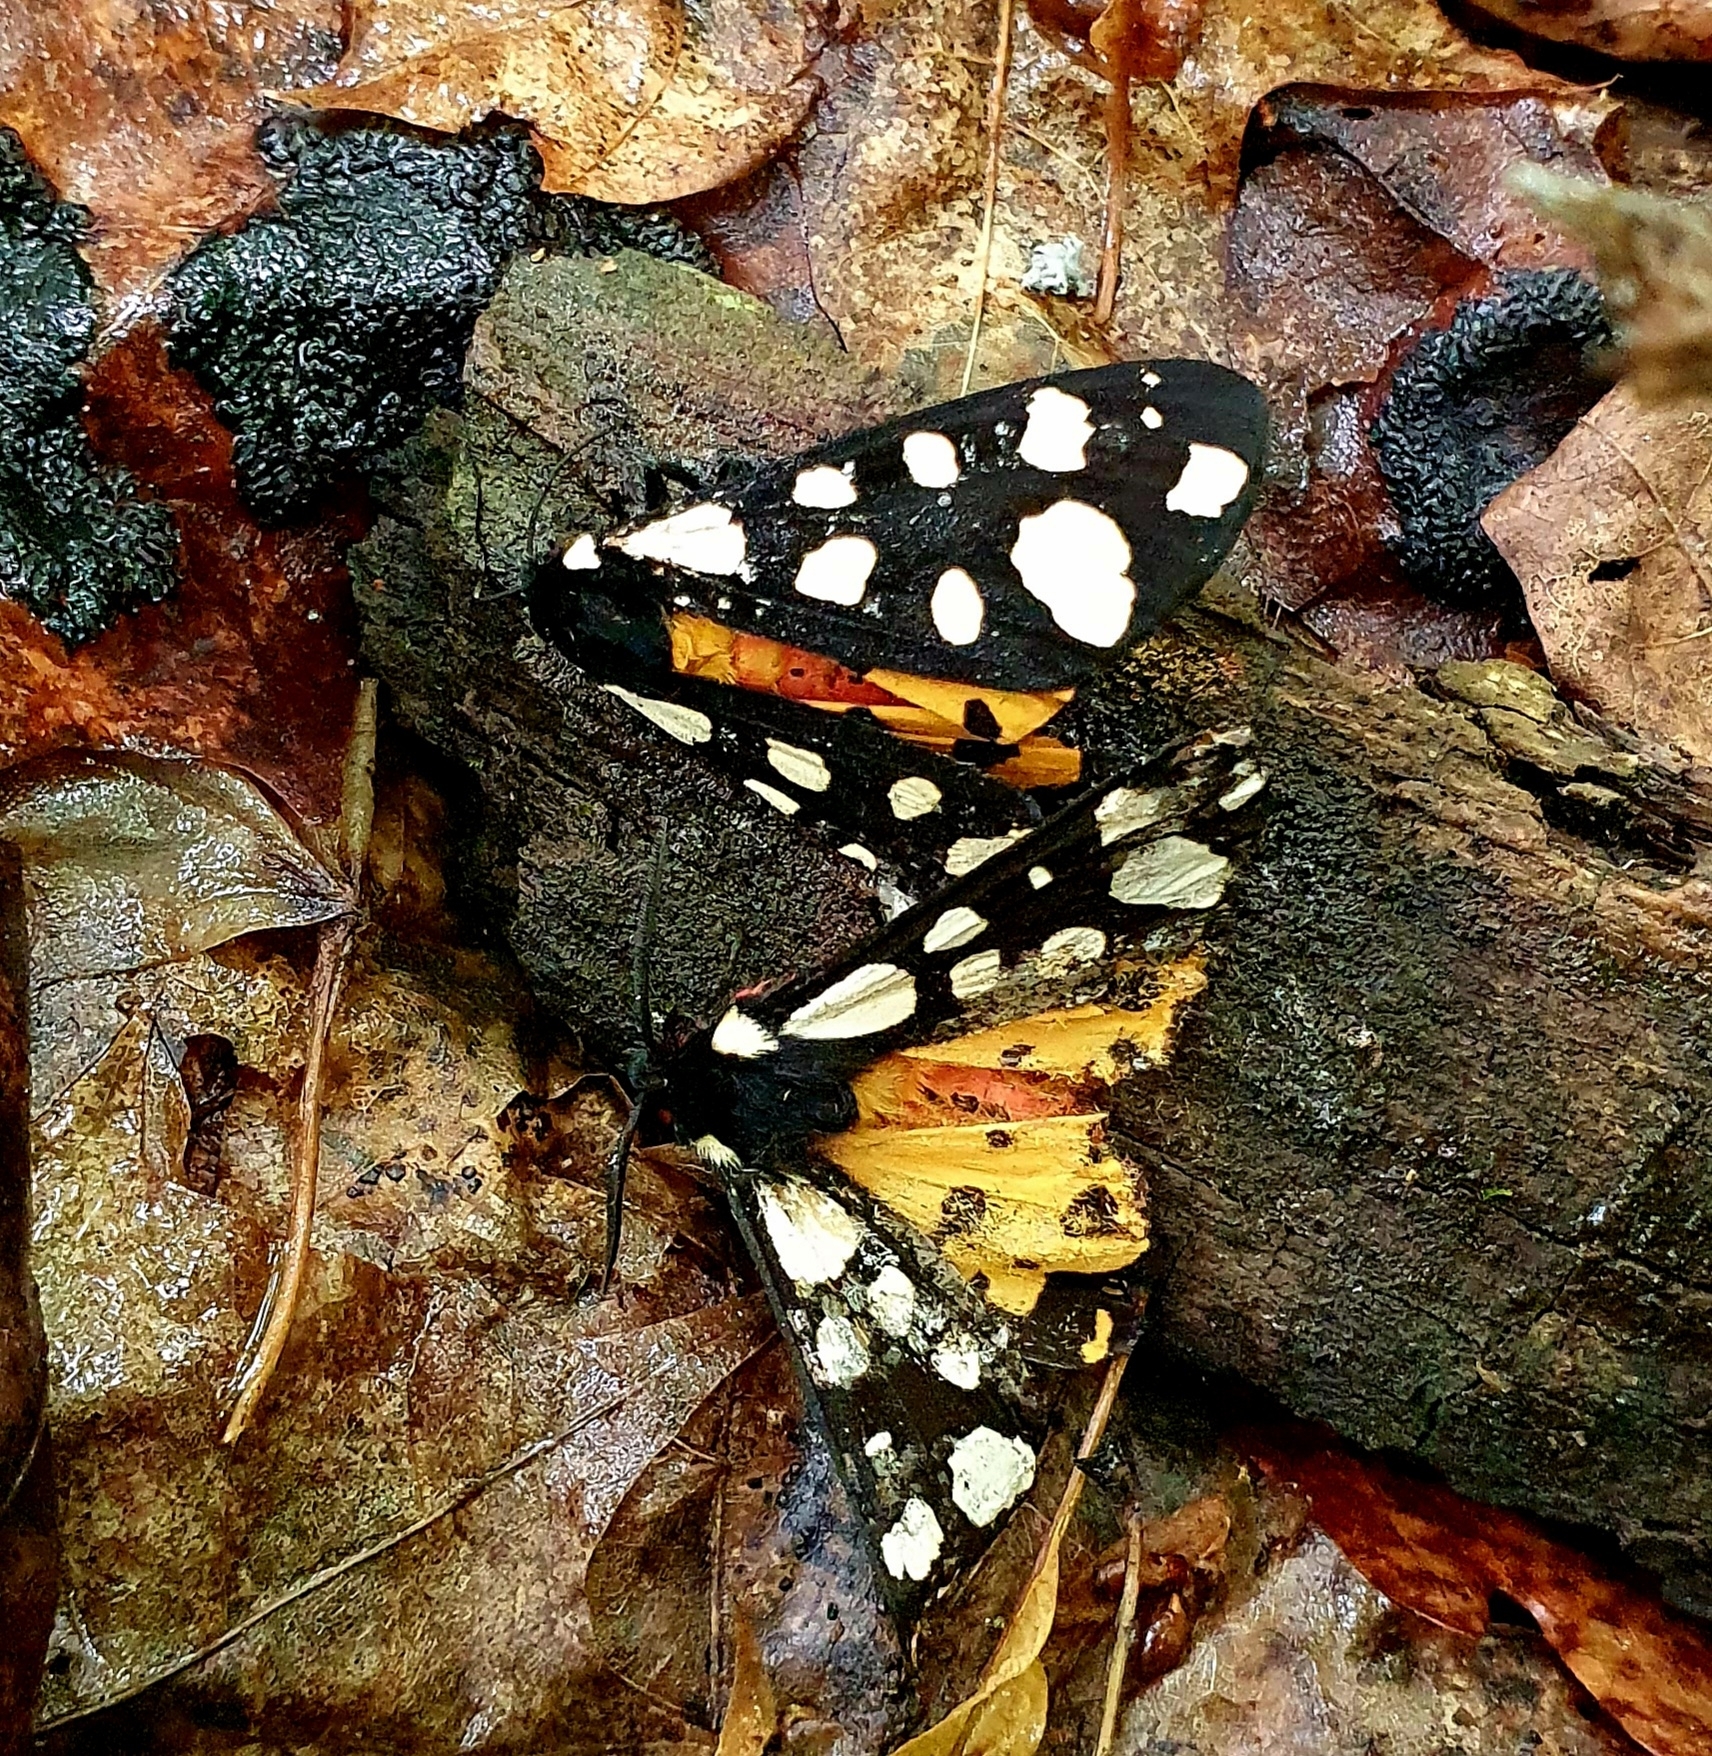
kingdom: Animalia
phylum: Arthropoda
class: Insecta
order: Lepidoptera
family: Erebidae
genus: Epicallia
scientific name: Epicallia villica
